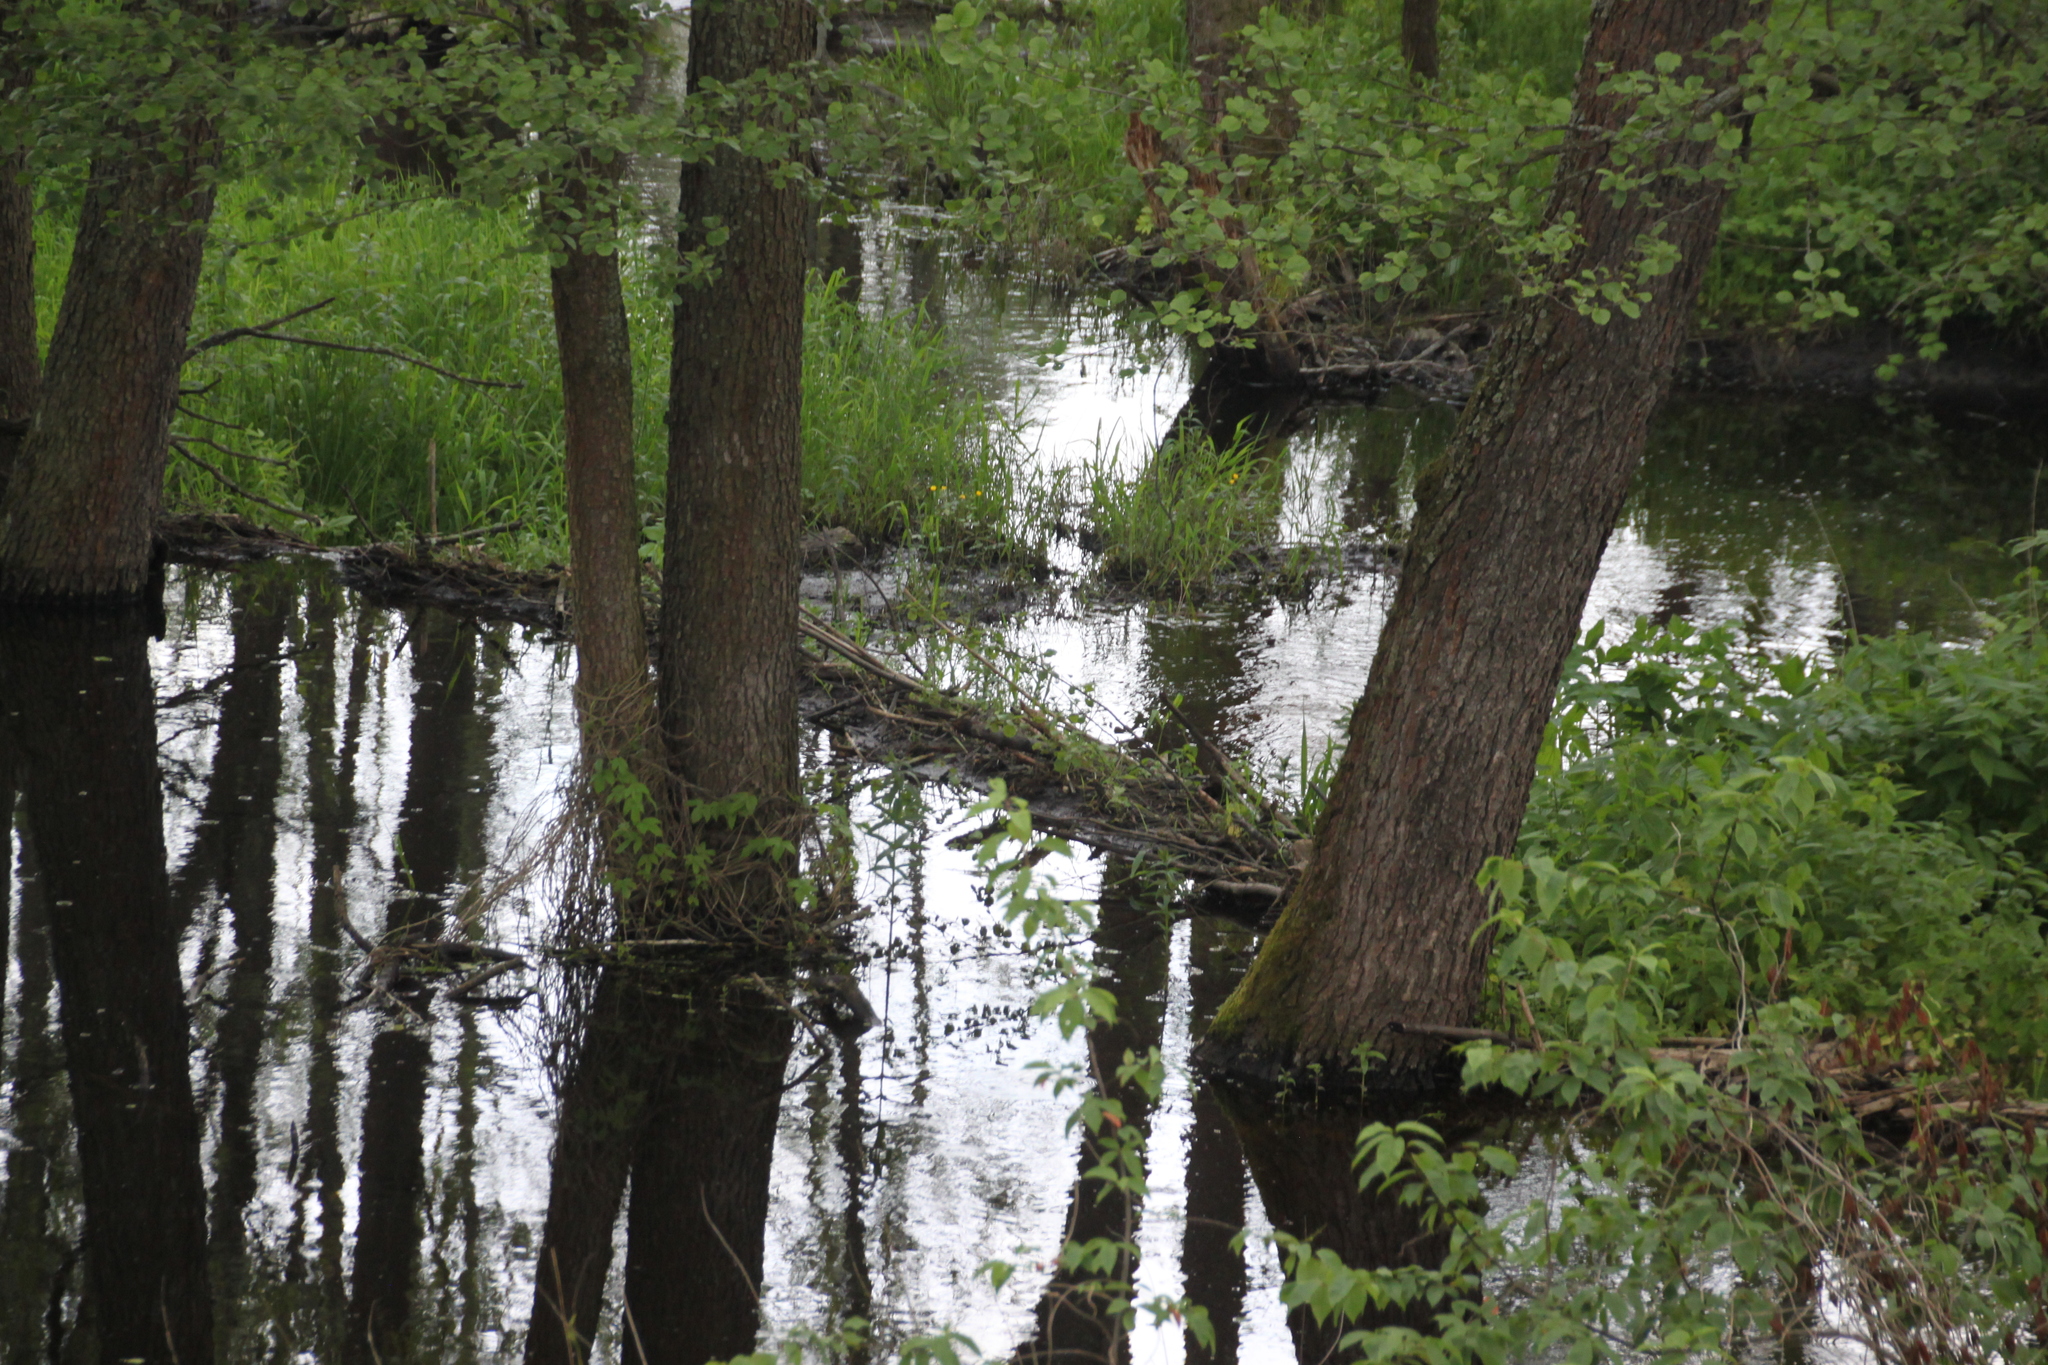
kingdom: Animalia
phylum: Chordata
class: Mammalia
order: Rodentia
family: Castoridae
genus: Castor
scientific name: Castor fiber
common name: Eurasian beaver
